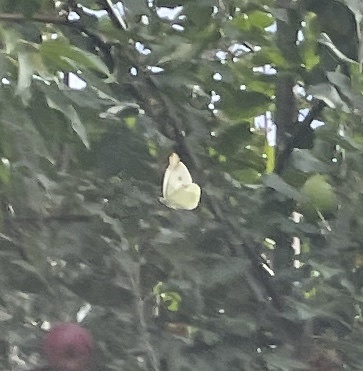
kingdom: Animalia
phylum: Arthropoda
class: Insecta
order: Lepidoptera
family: Pieridae
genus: Pieris
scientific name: Pieris rapae
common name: Small white
